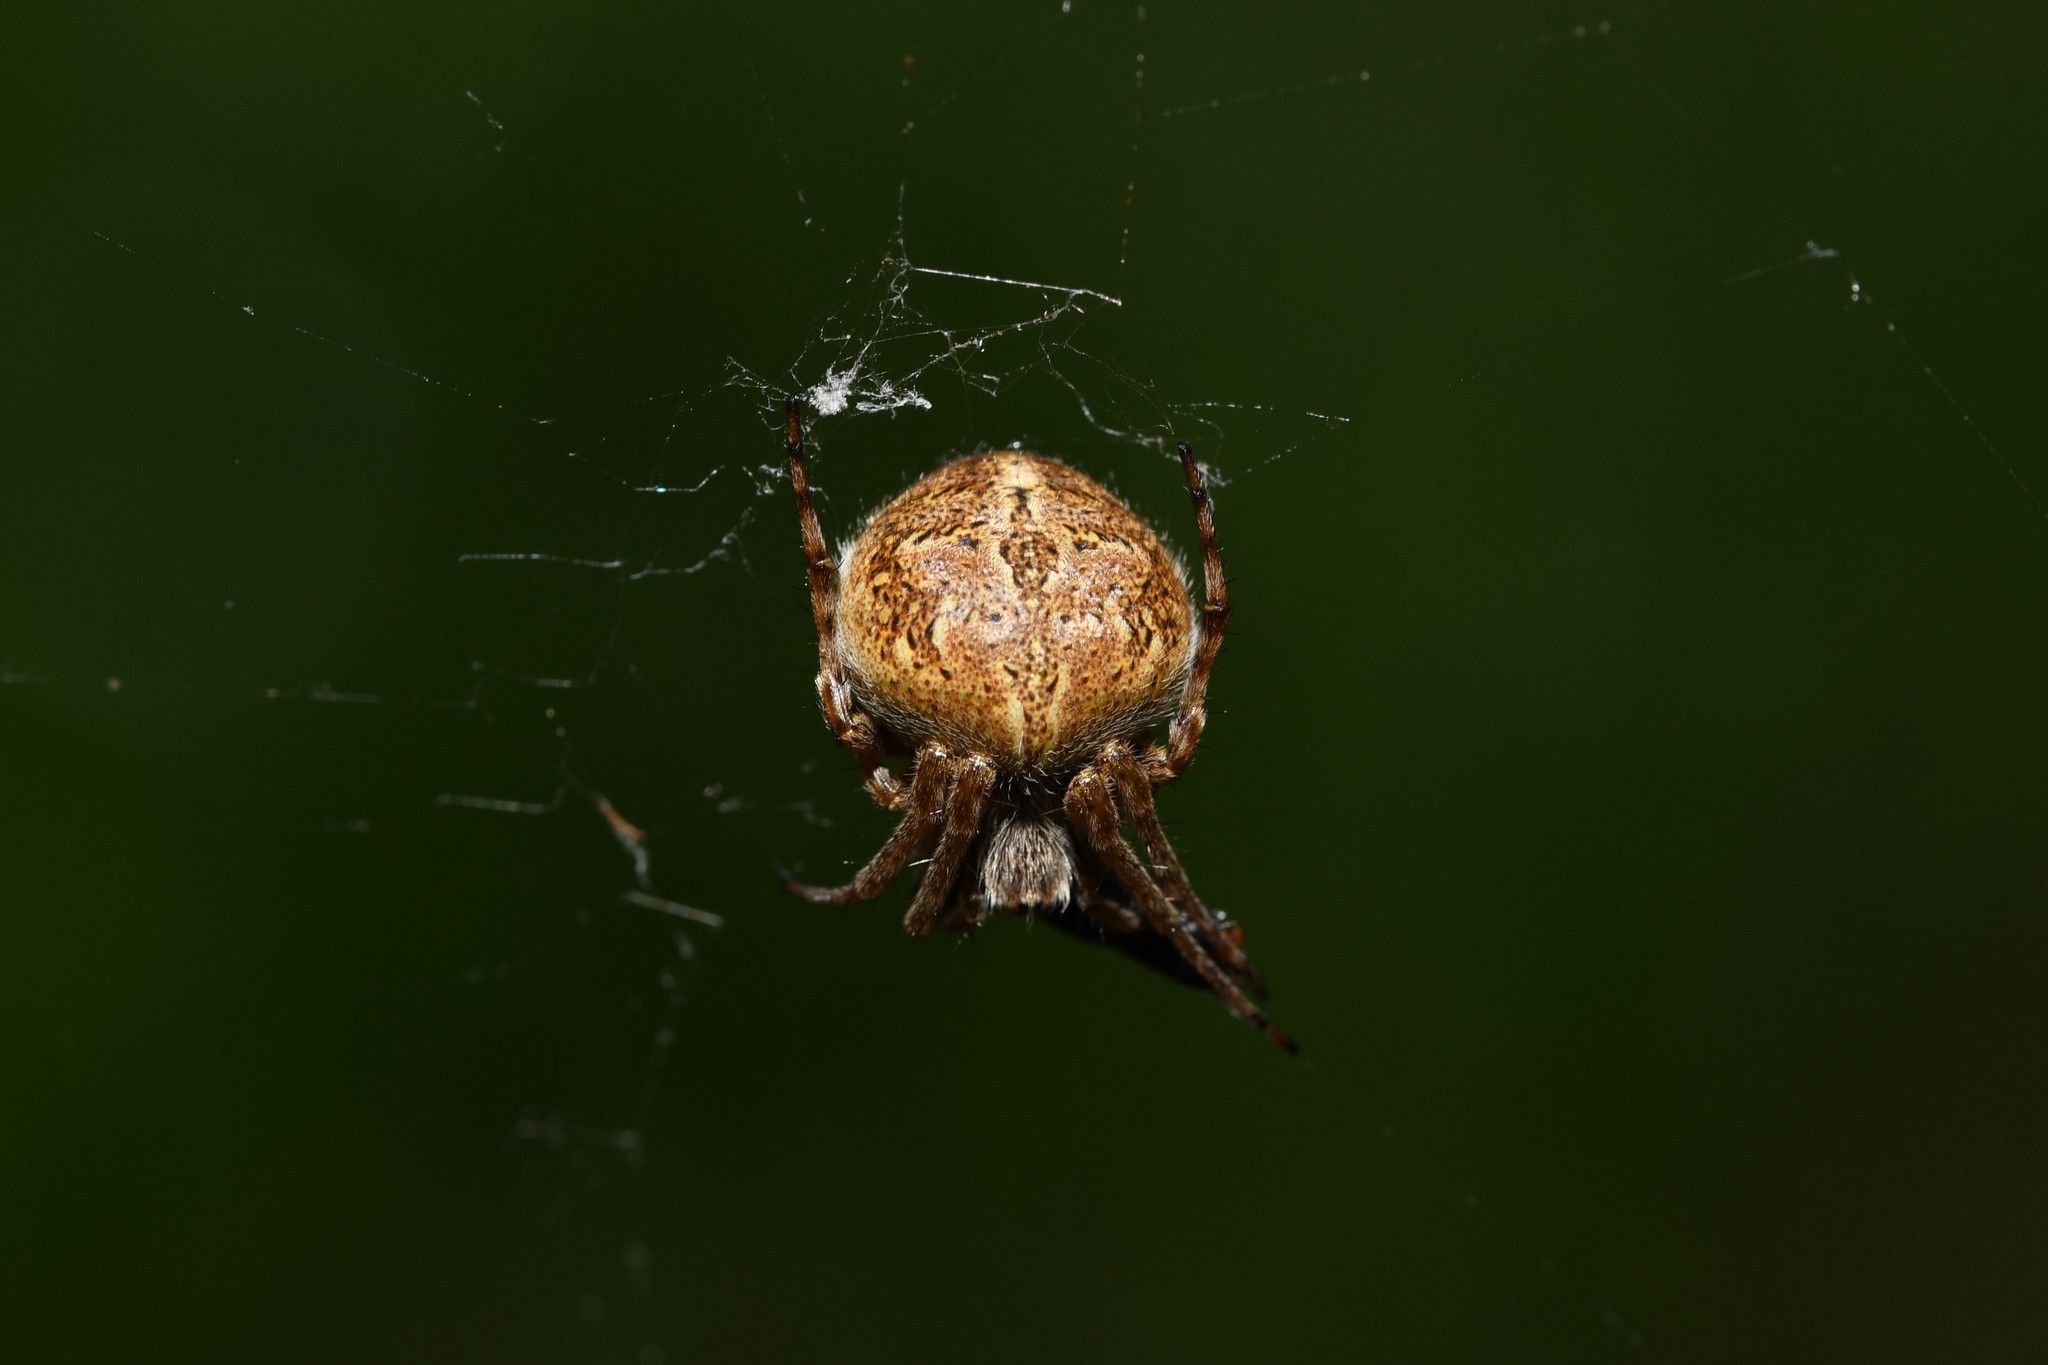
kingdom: Animalia
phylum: Arthropoda
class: Arachnida
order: Araneae
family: Araneidae
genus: Agalenatea
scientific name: Agalenatea redii
